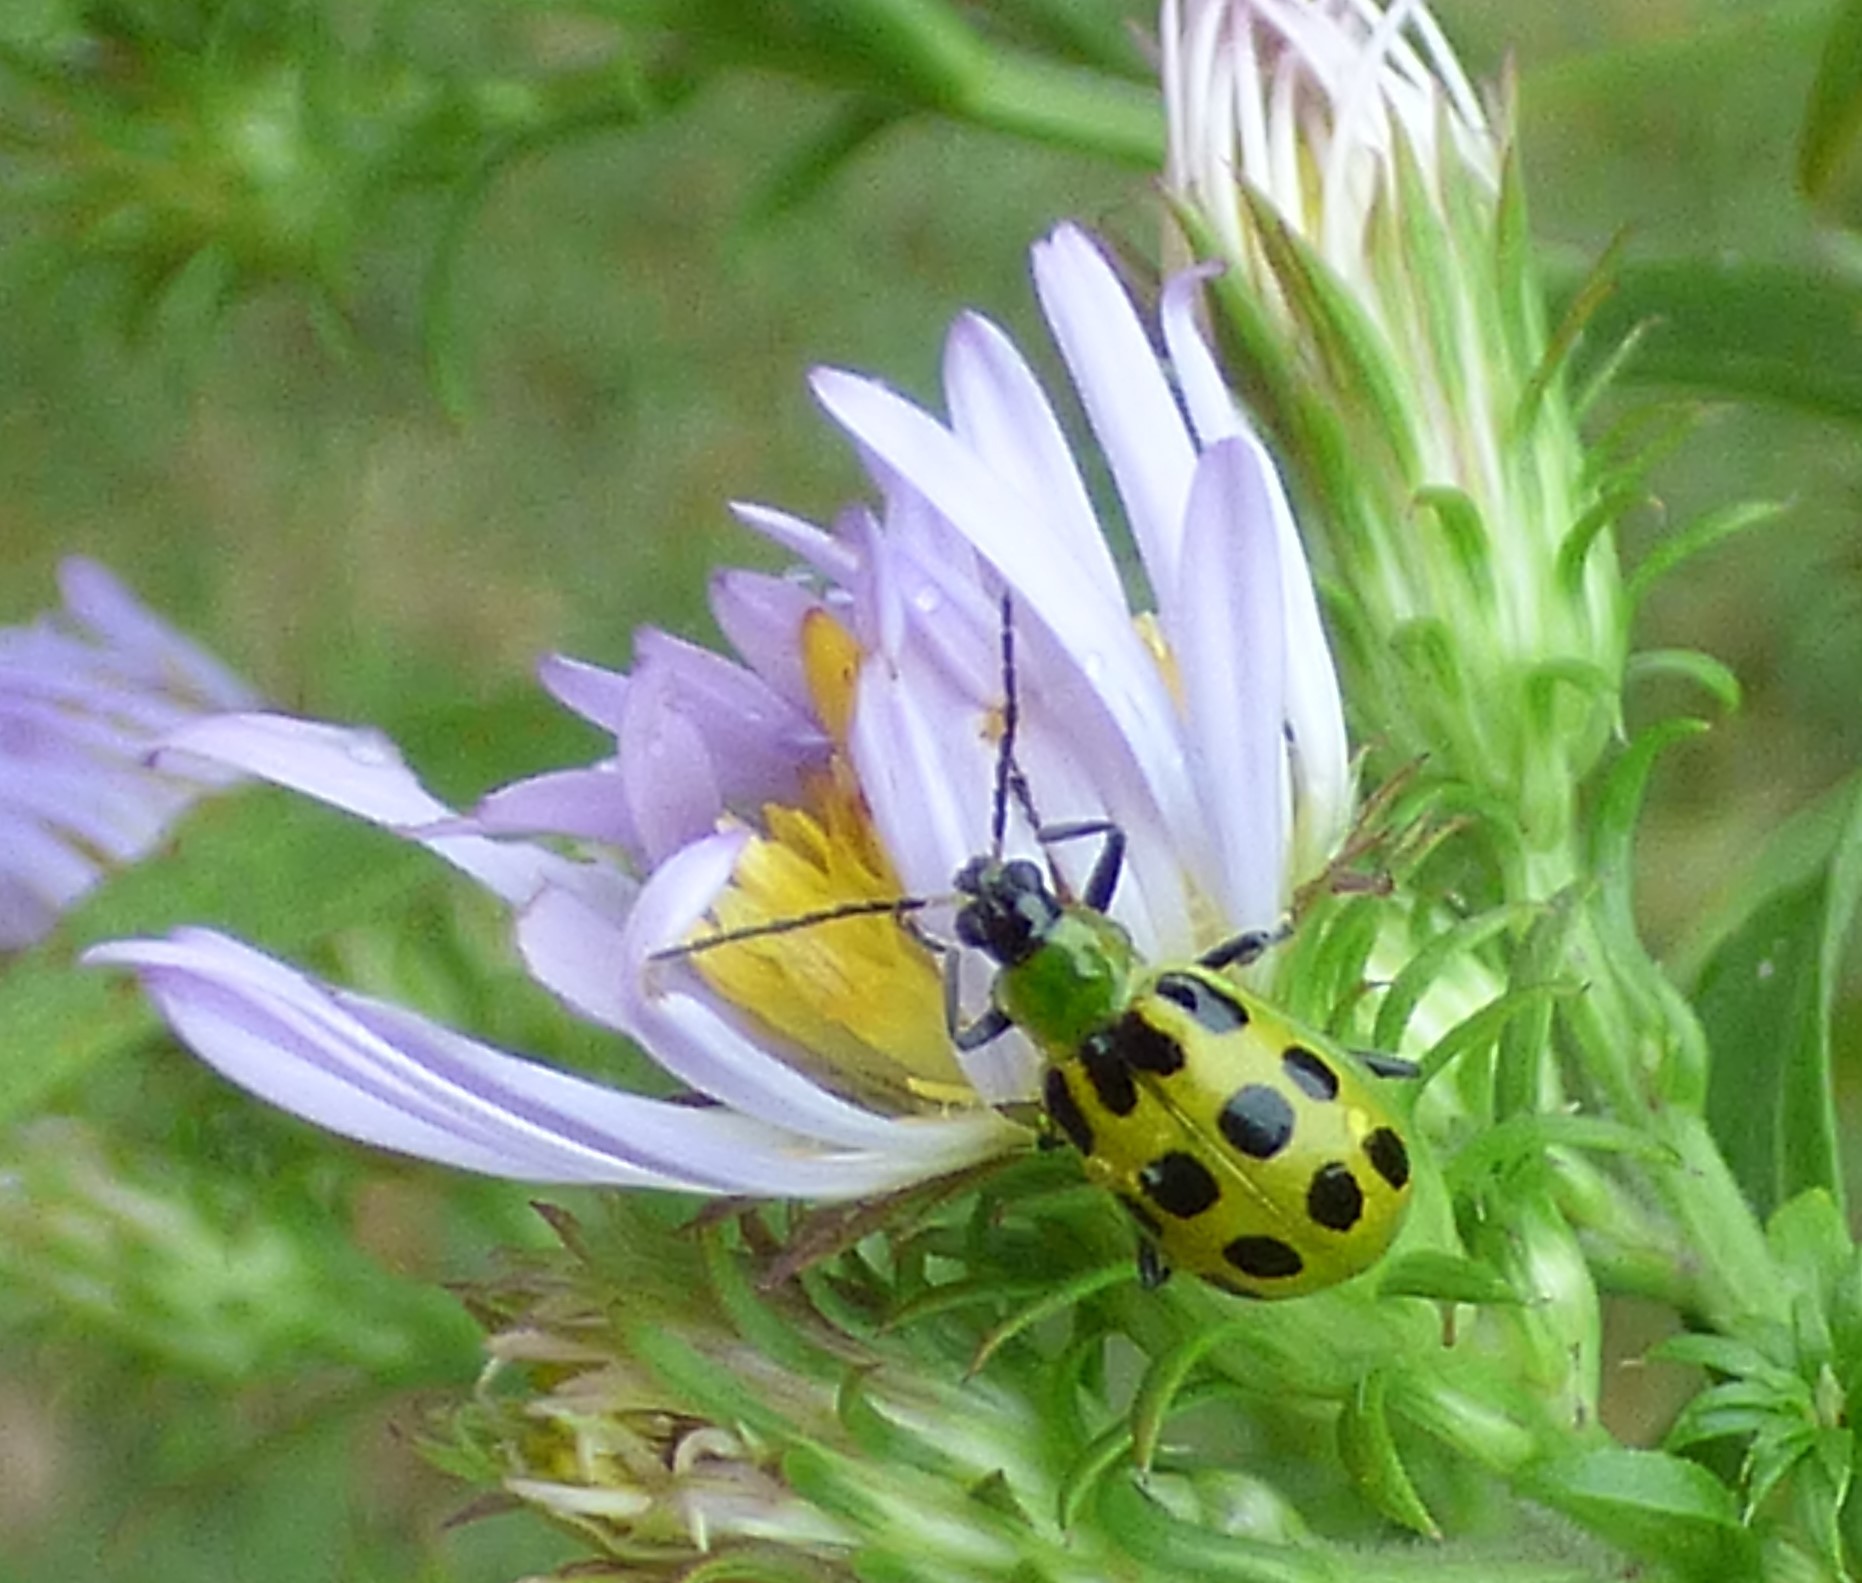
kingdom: Animalia
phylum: Arthropoda
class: Insecta
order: Coleoptera
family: Chrysomelidae
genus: Diabrotica
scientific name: Diabrotica undecimpunctata
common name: Spotted cucumber beetle
